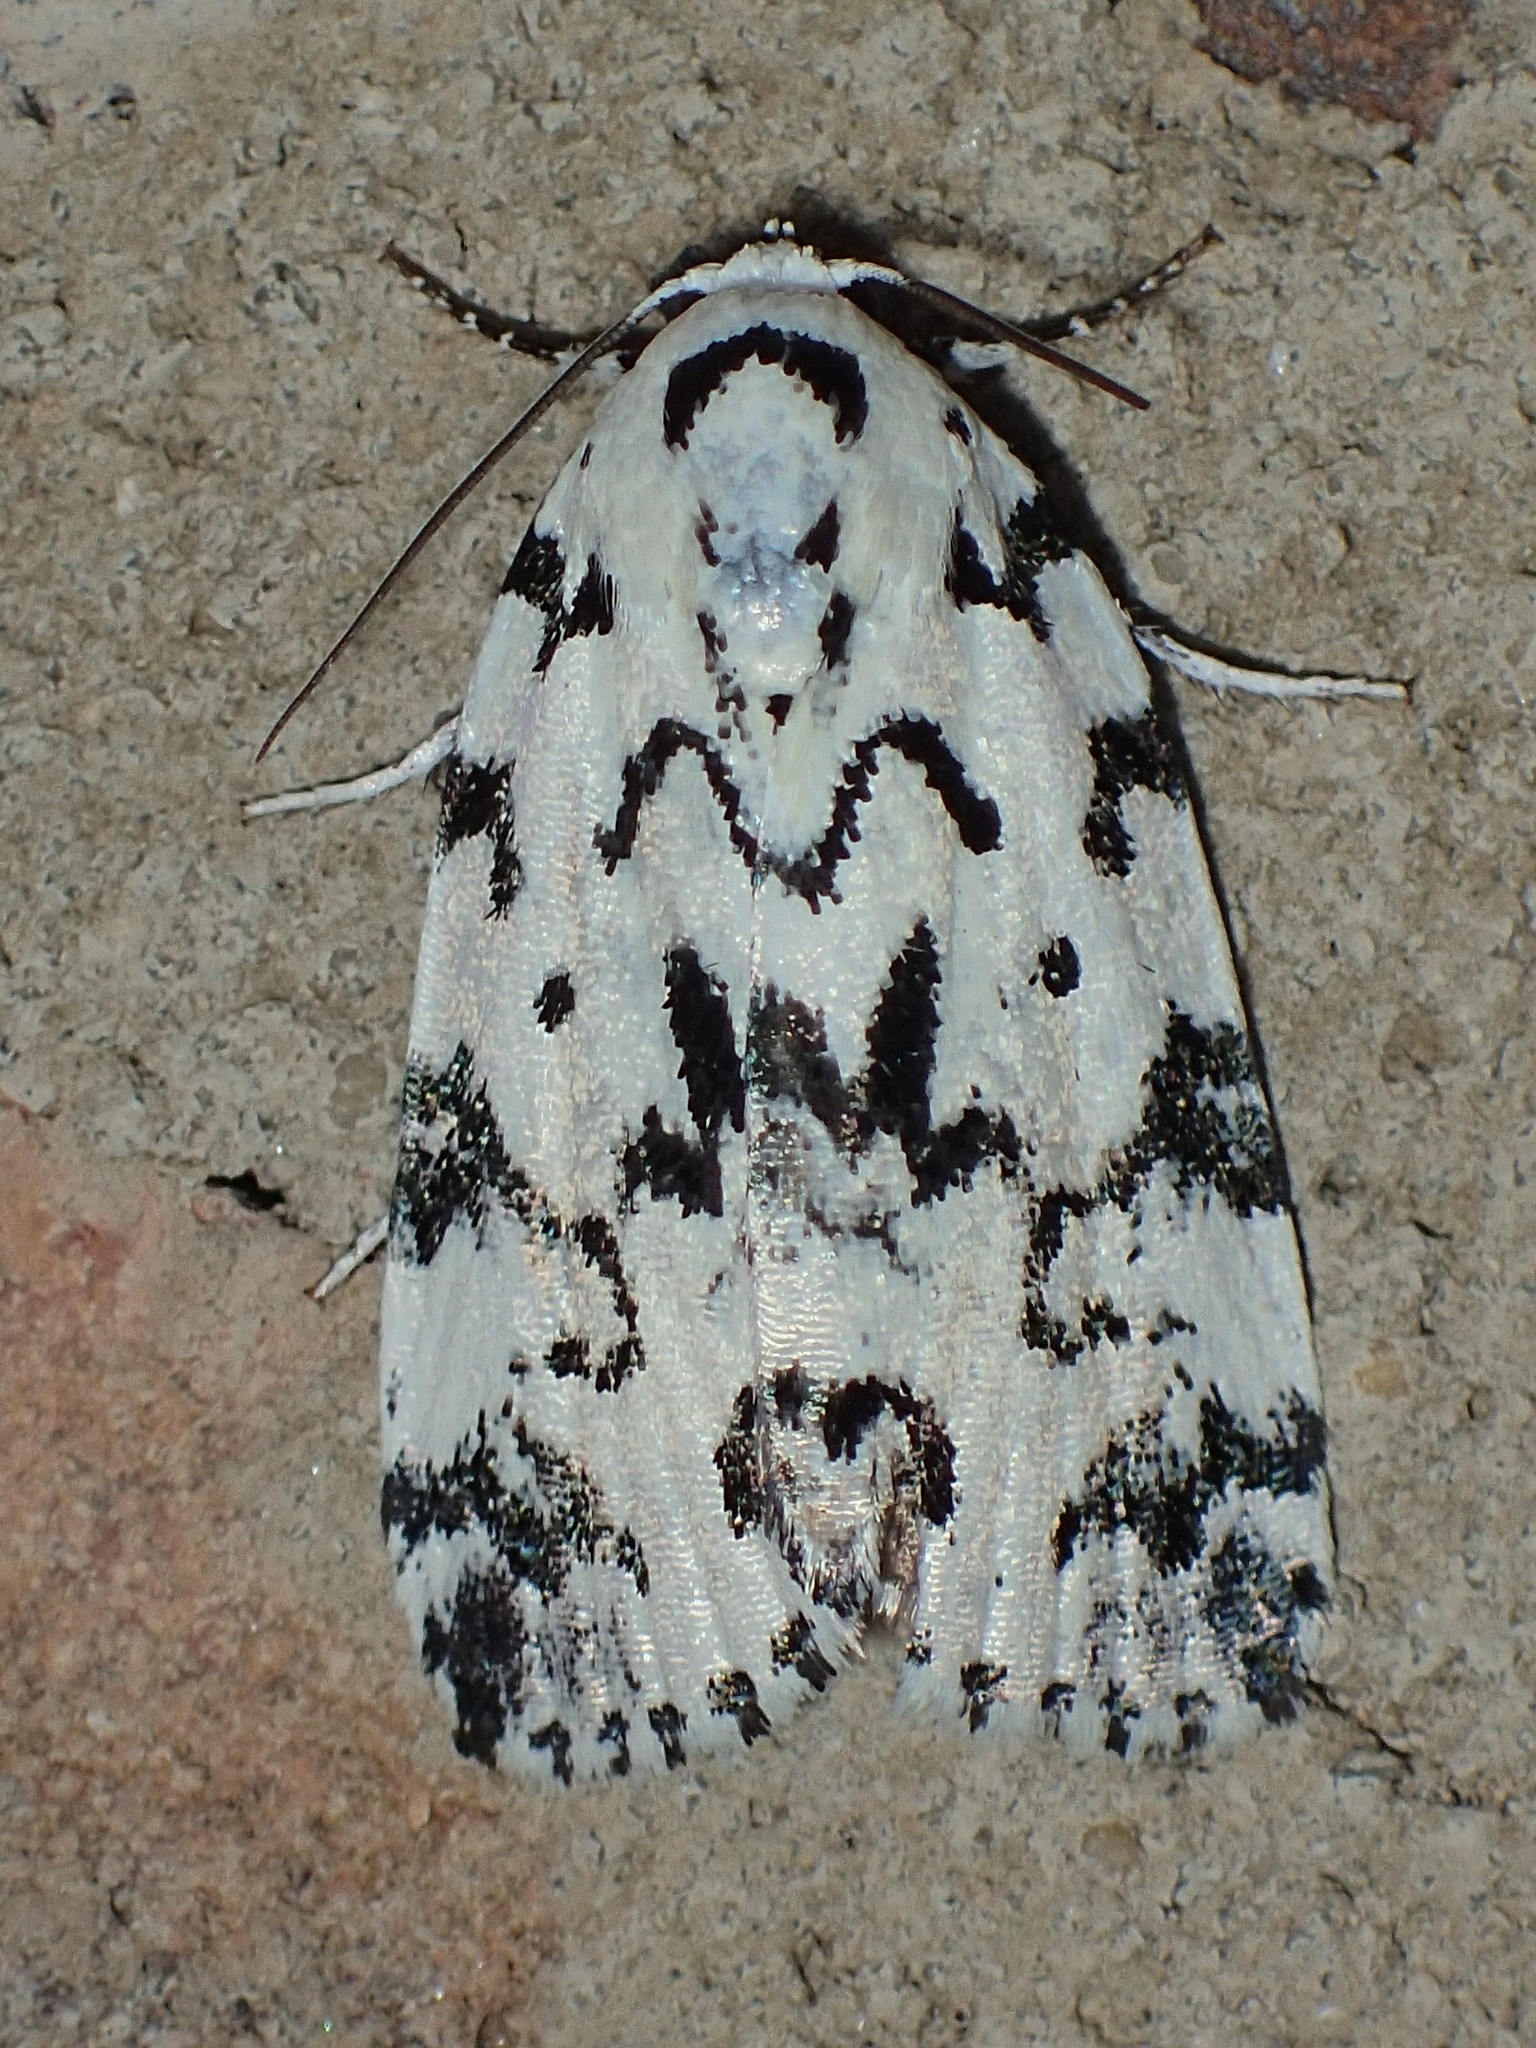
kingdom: Animalia
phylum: Arthropoda
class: Insecta
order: Lepidoptera
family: Noctuidae
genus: Polygrammate
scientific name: Polygrammate hebraeicum
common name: Hebrew moth
